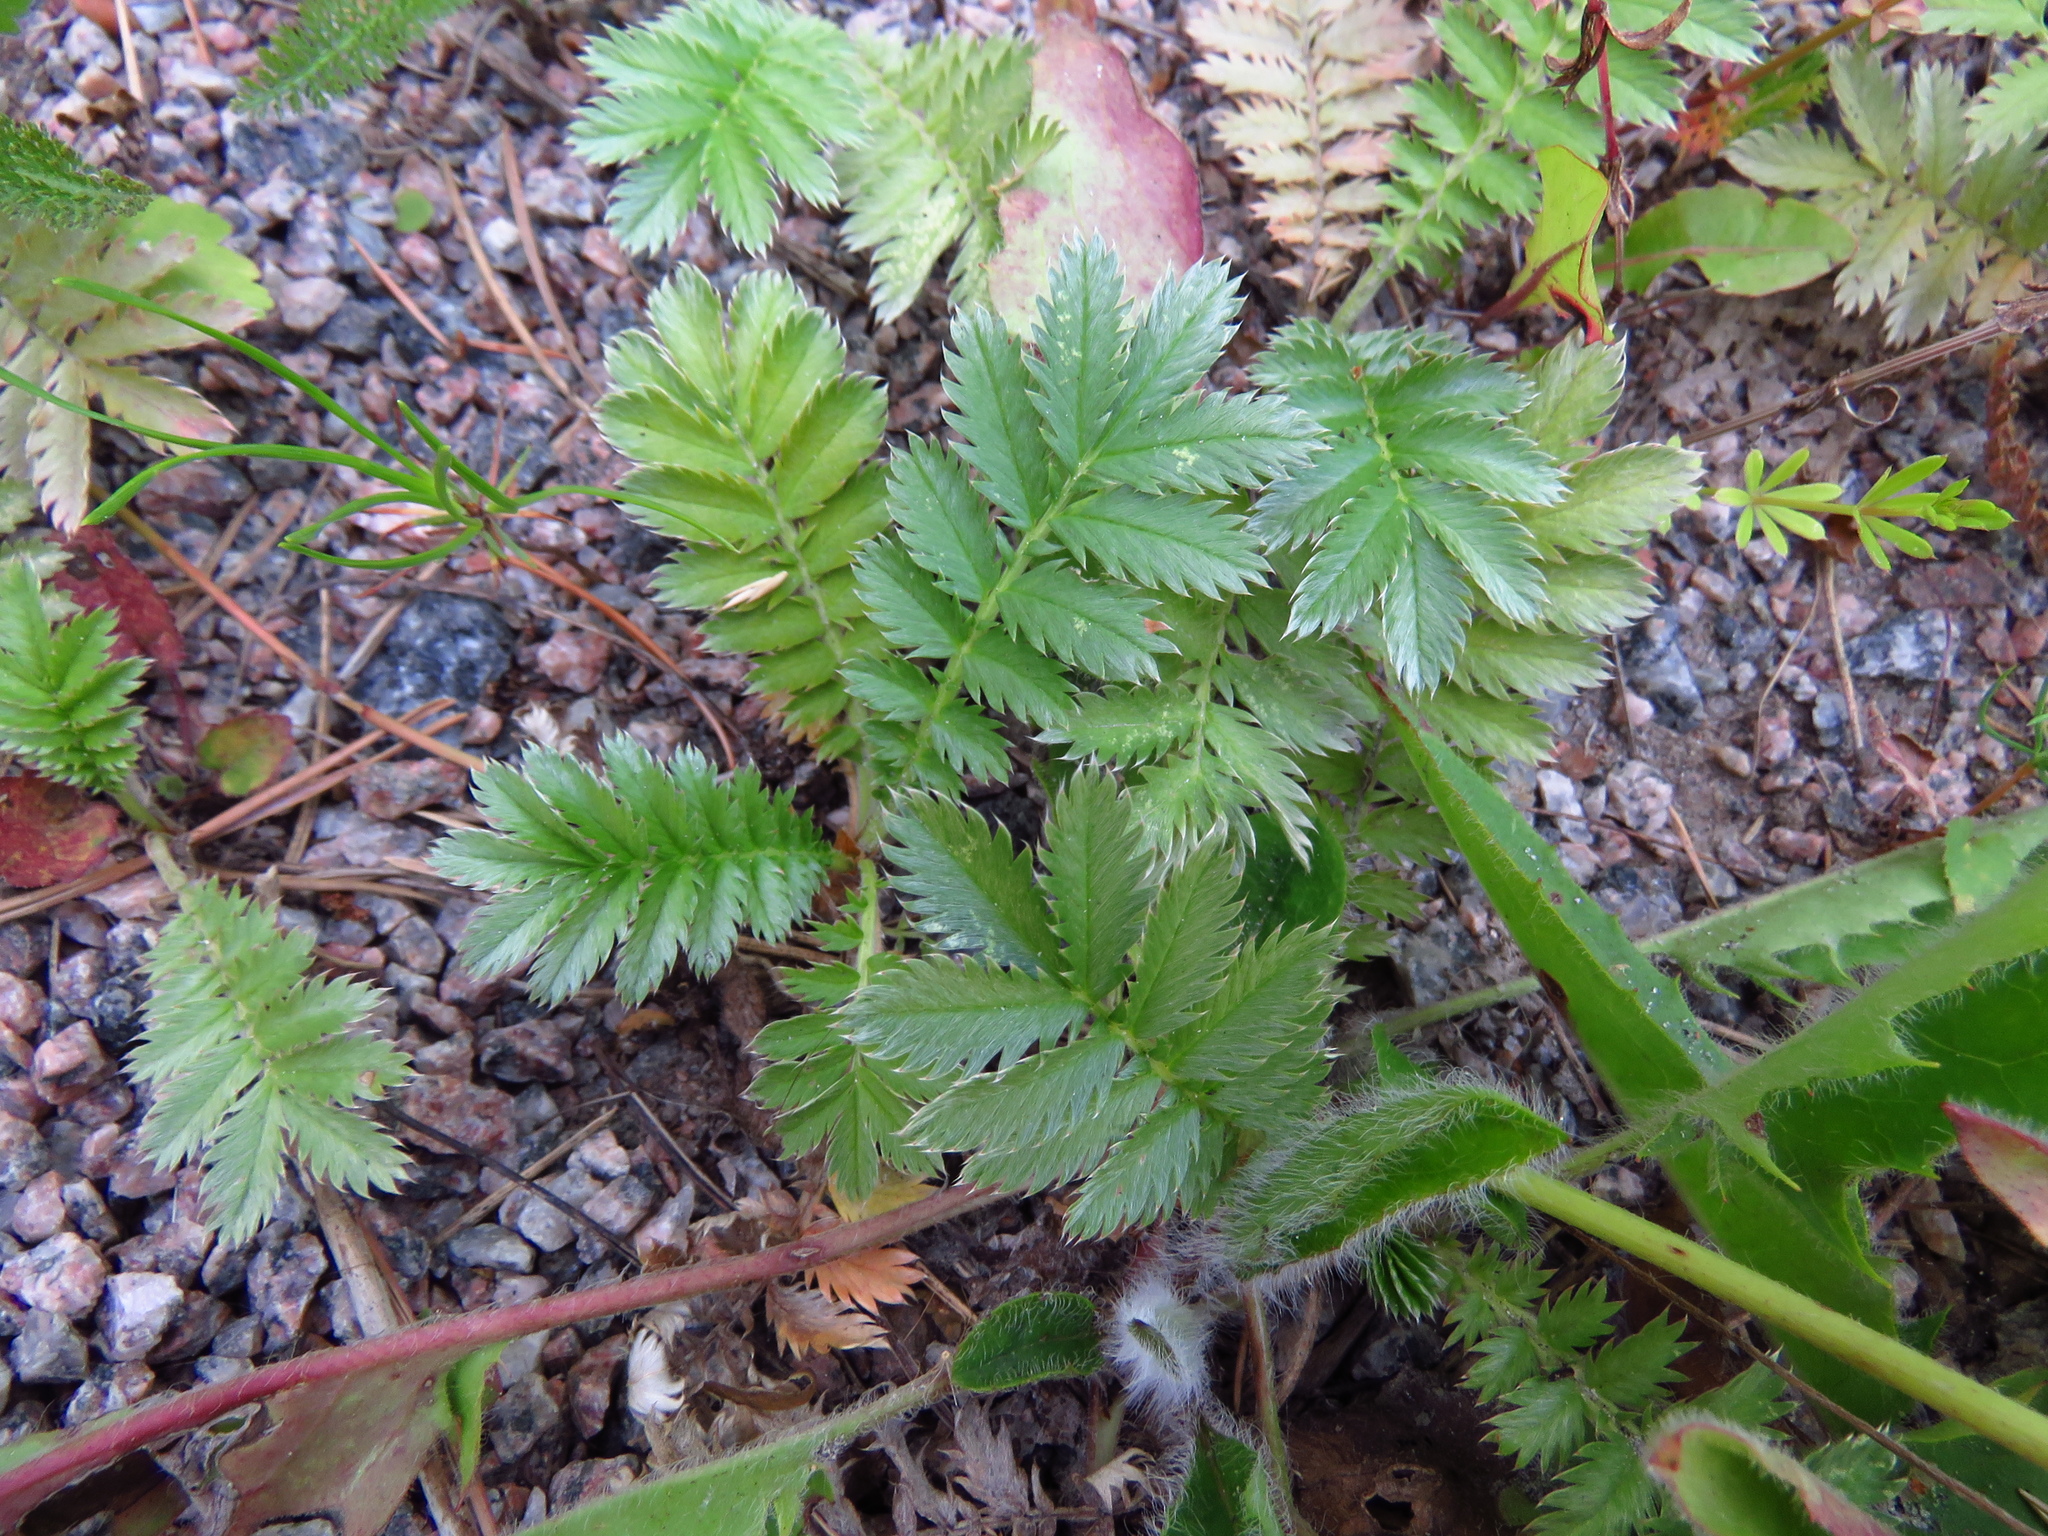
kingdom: Plantae
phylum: Tracheophyta
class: Magnoliopsida
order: Rosales
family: Rosaceae
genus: Argentina
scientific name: Argentina anserina
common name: Common silverweed
